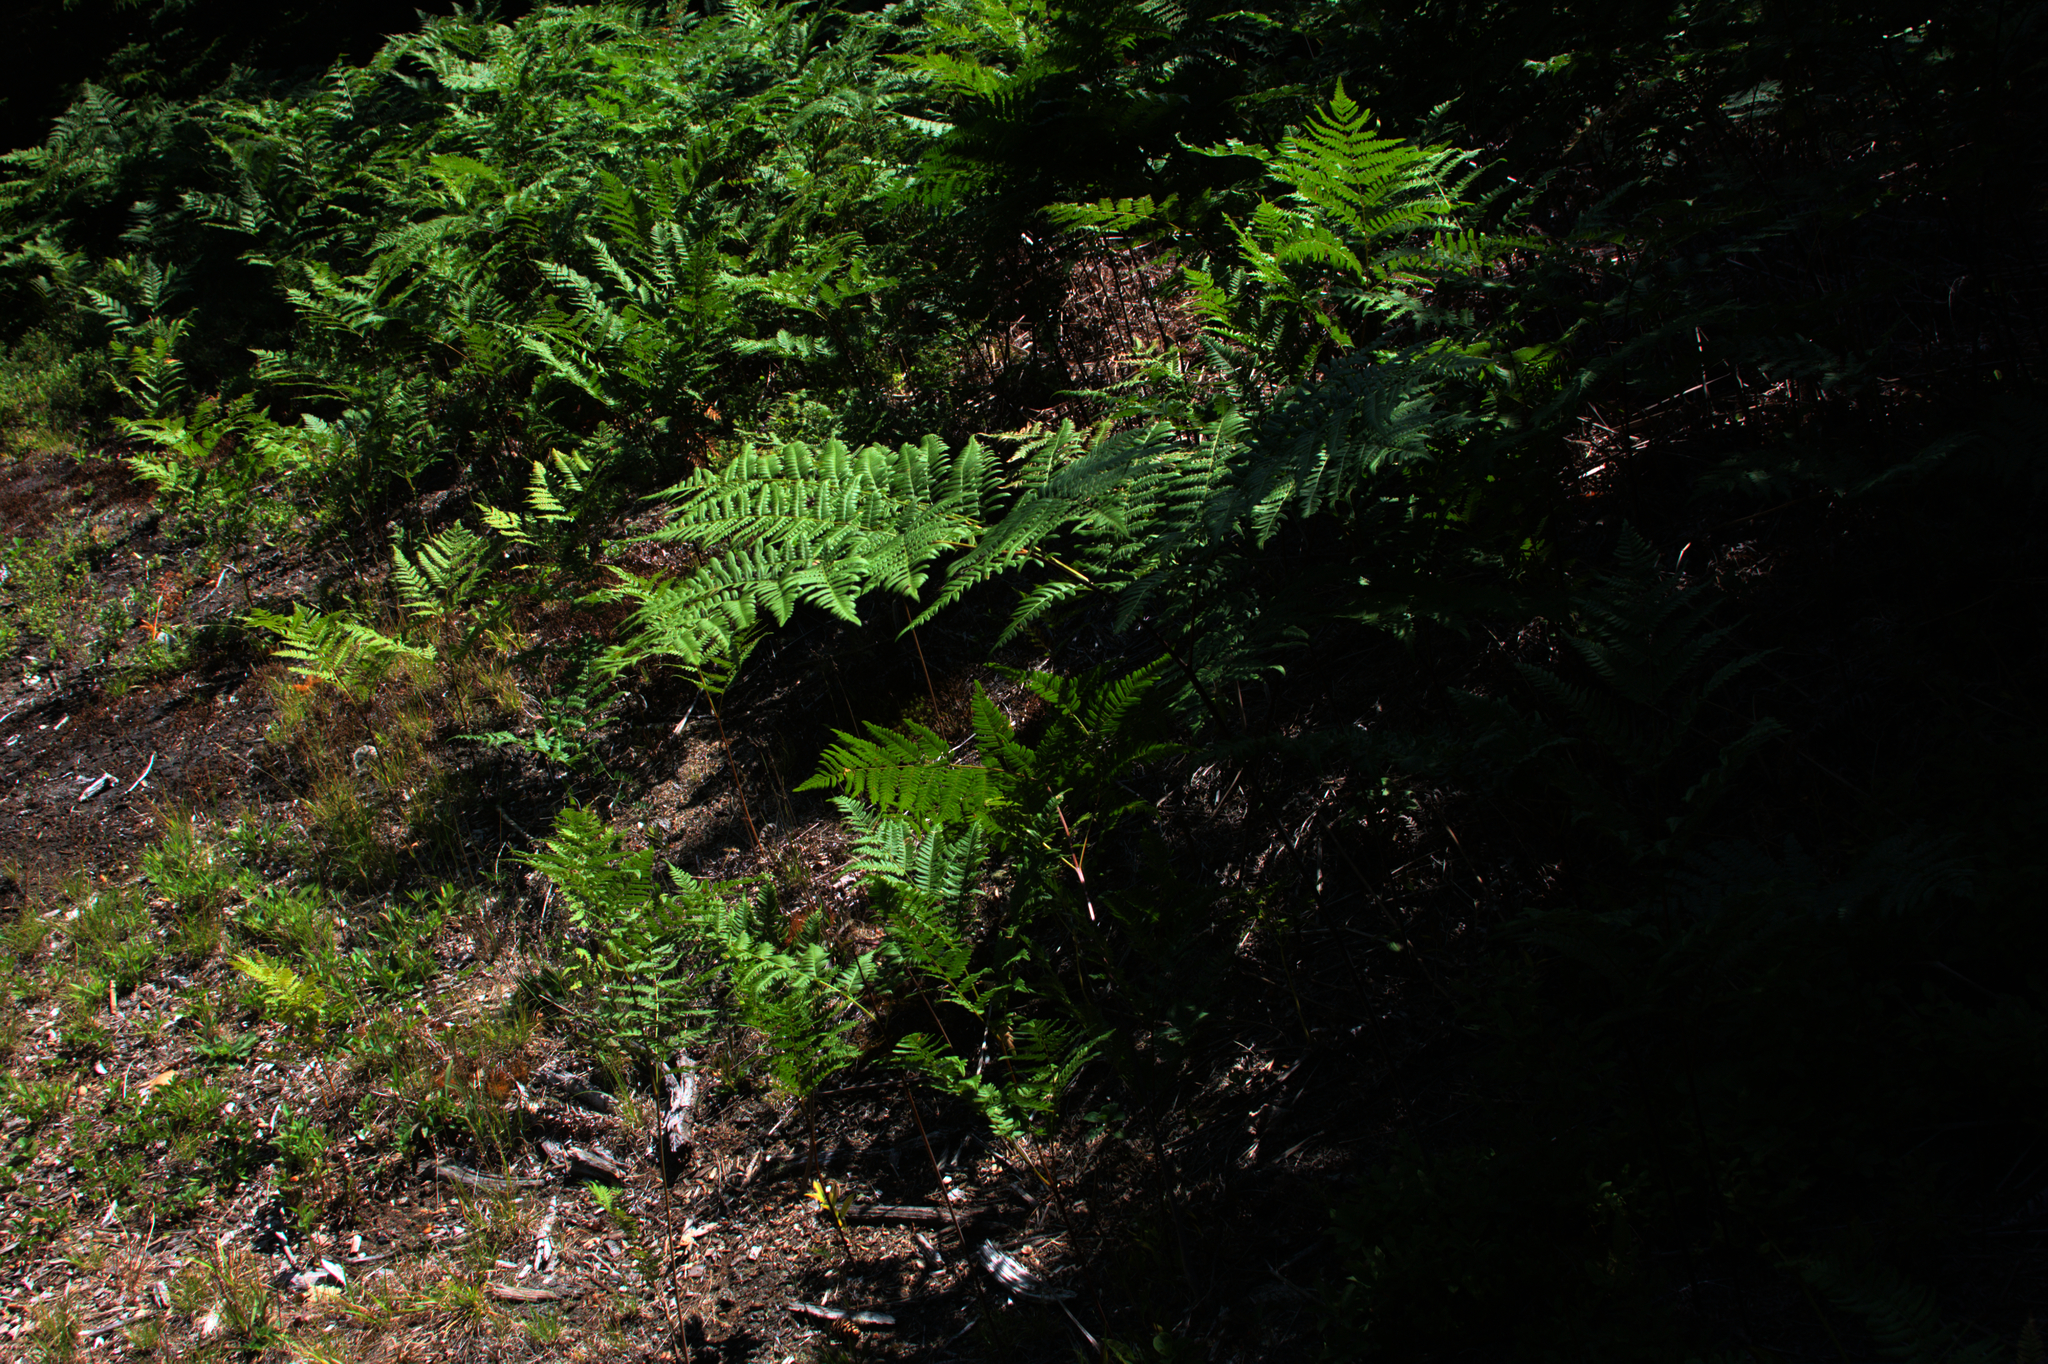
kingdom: Plantae
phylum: Tracheophyta
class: Polypodiopsida
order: Polypodiales
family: Dennstaedtiaceae
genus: Pteridium
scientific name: Pteridium aquilinum
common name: Bracken
